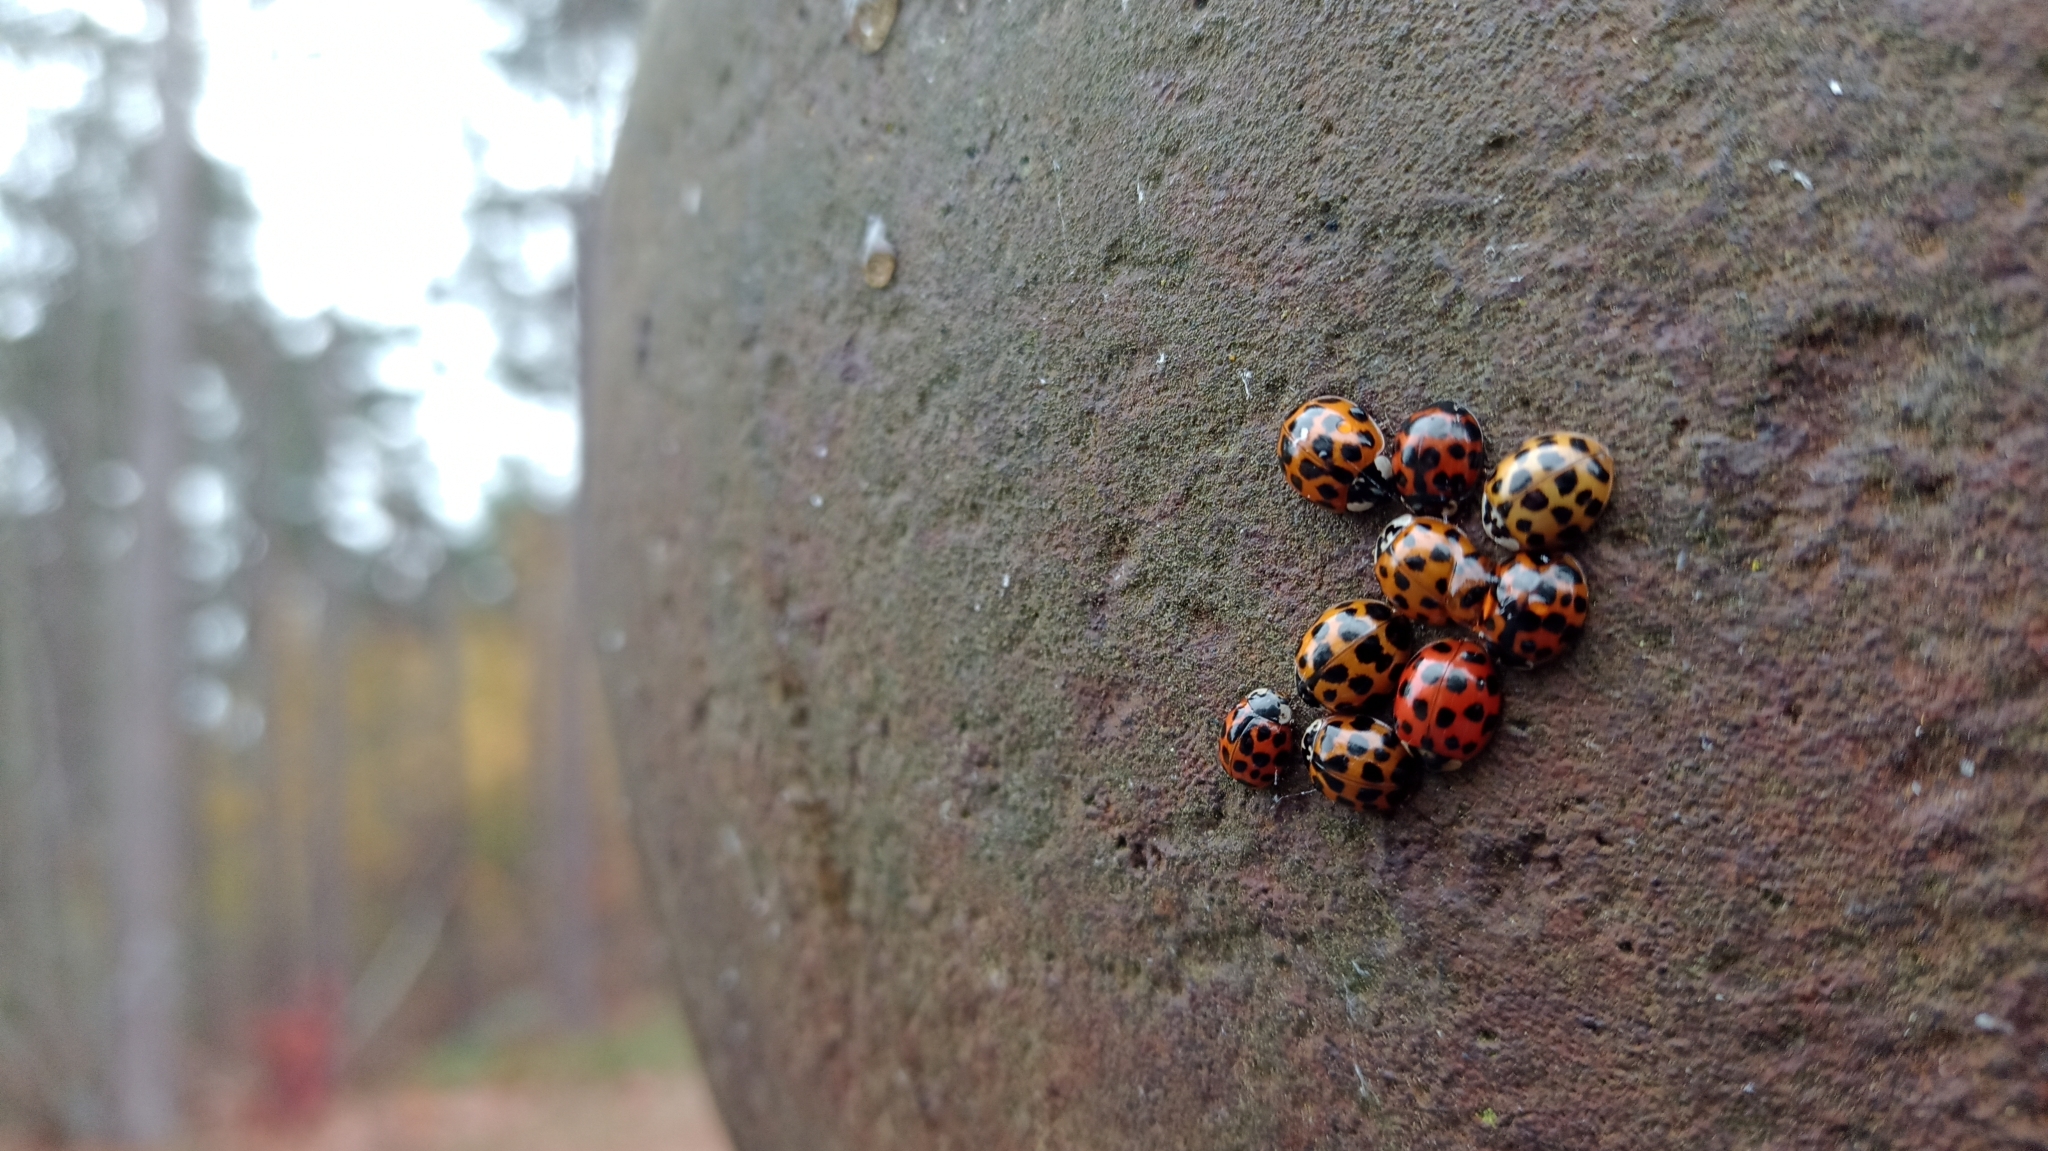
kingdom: Animalia
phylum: Arthropoda
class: Insecta
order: Coleoptera
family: Coccinellidae
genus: Harmonia
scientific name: Harmonia axyridis
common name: Harlequin ladybird
